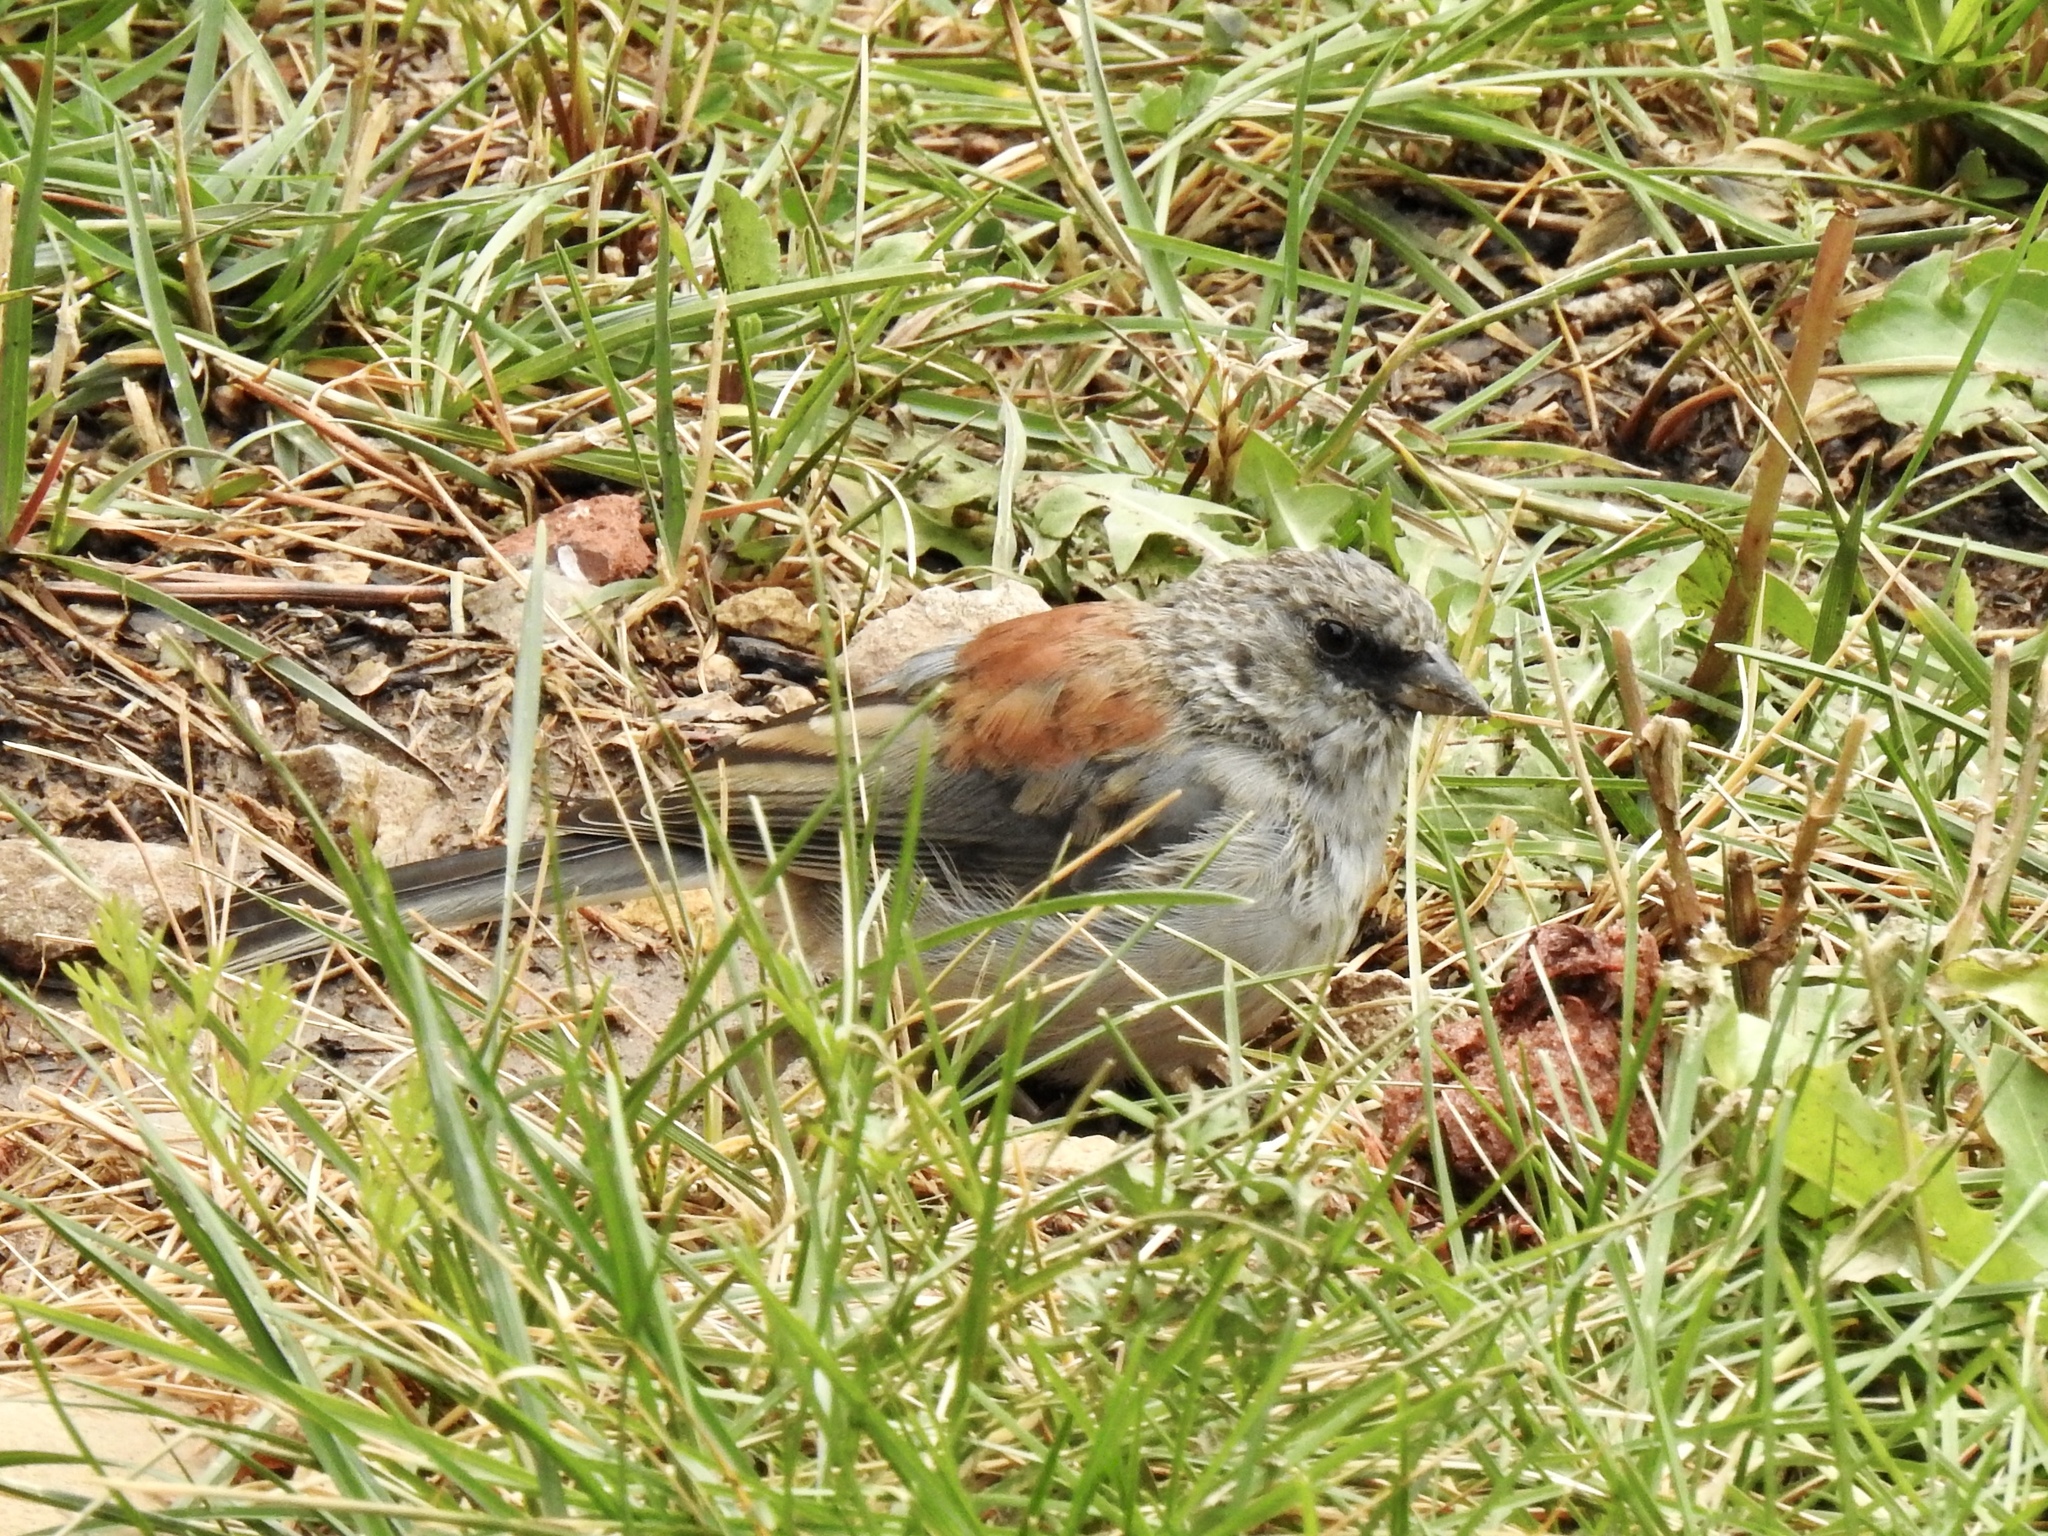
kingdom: Animalia
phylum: Chordata
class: Aves
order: Passeriformes
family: Passerellidae
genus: Junco
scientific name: Junco hyemalis
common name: Dark-eyed junco
